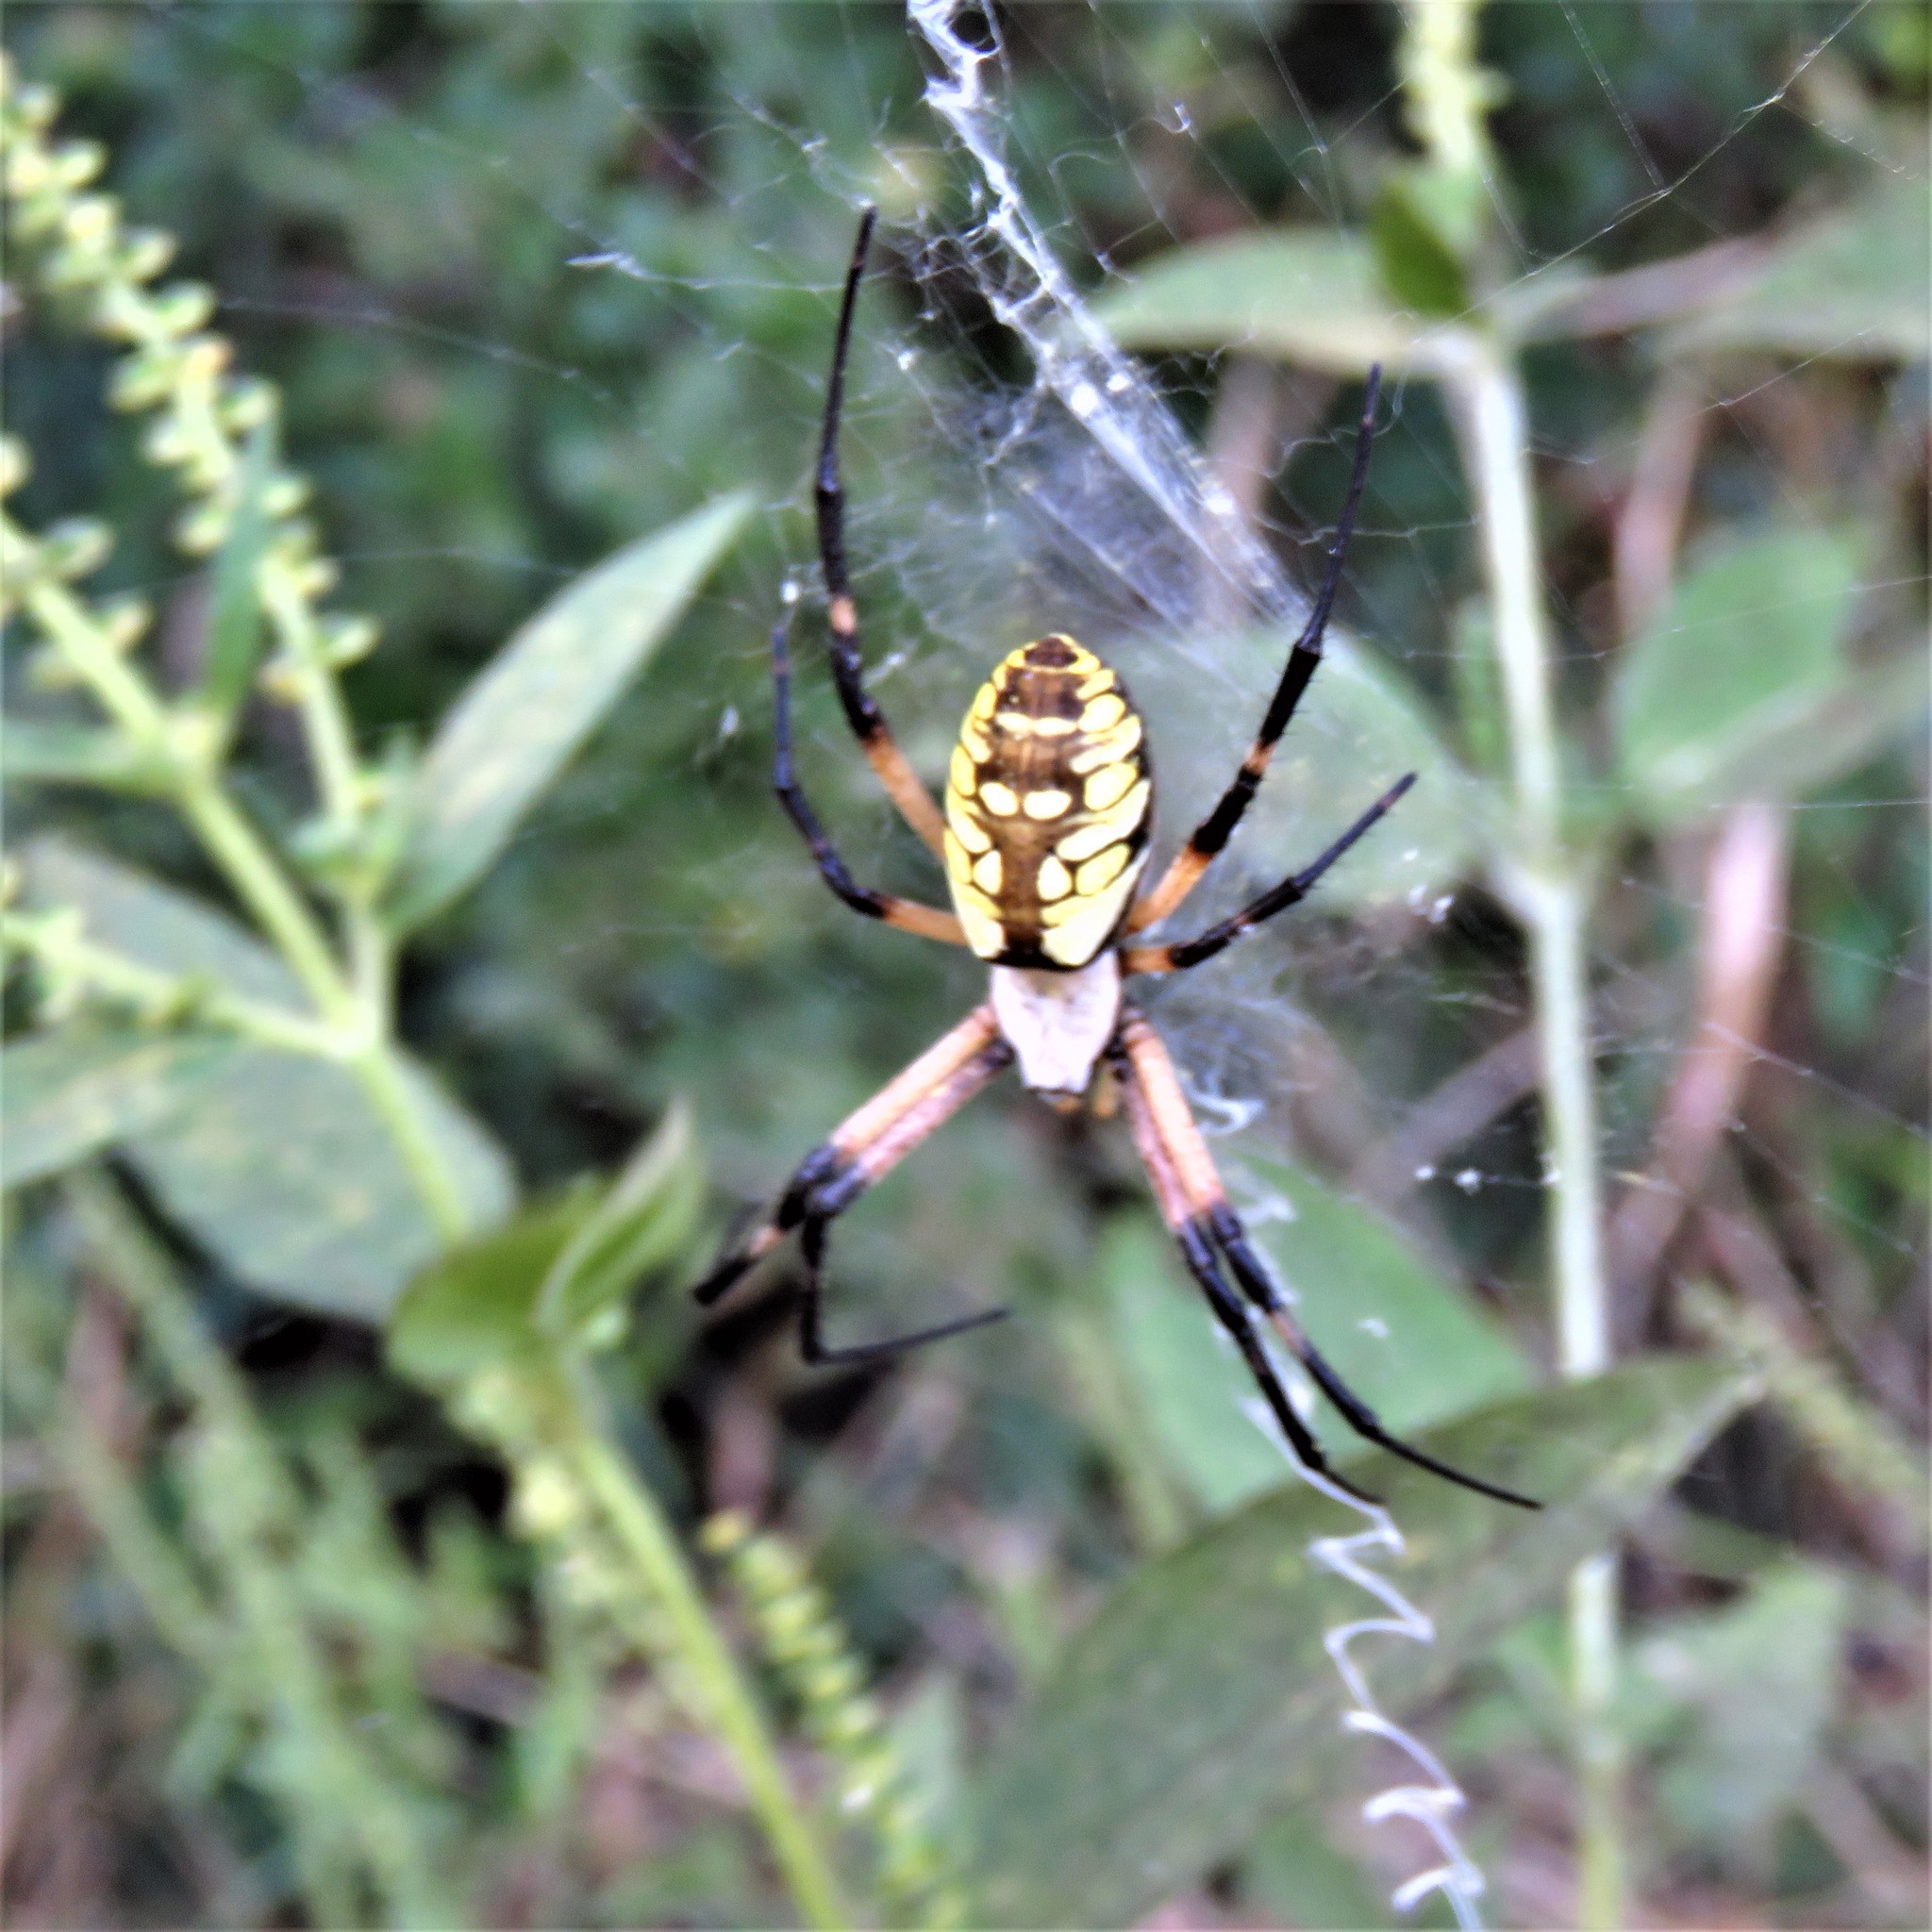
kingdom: Animalia
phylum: Arthropoda
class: Arachnida
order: Araneae
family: Araneidae
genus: Argiope
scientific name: Argiope aurantia
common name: Orb weavers
